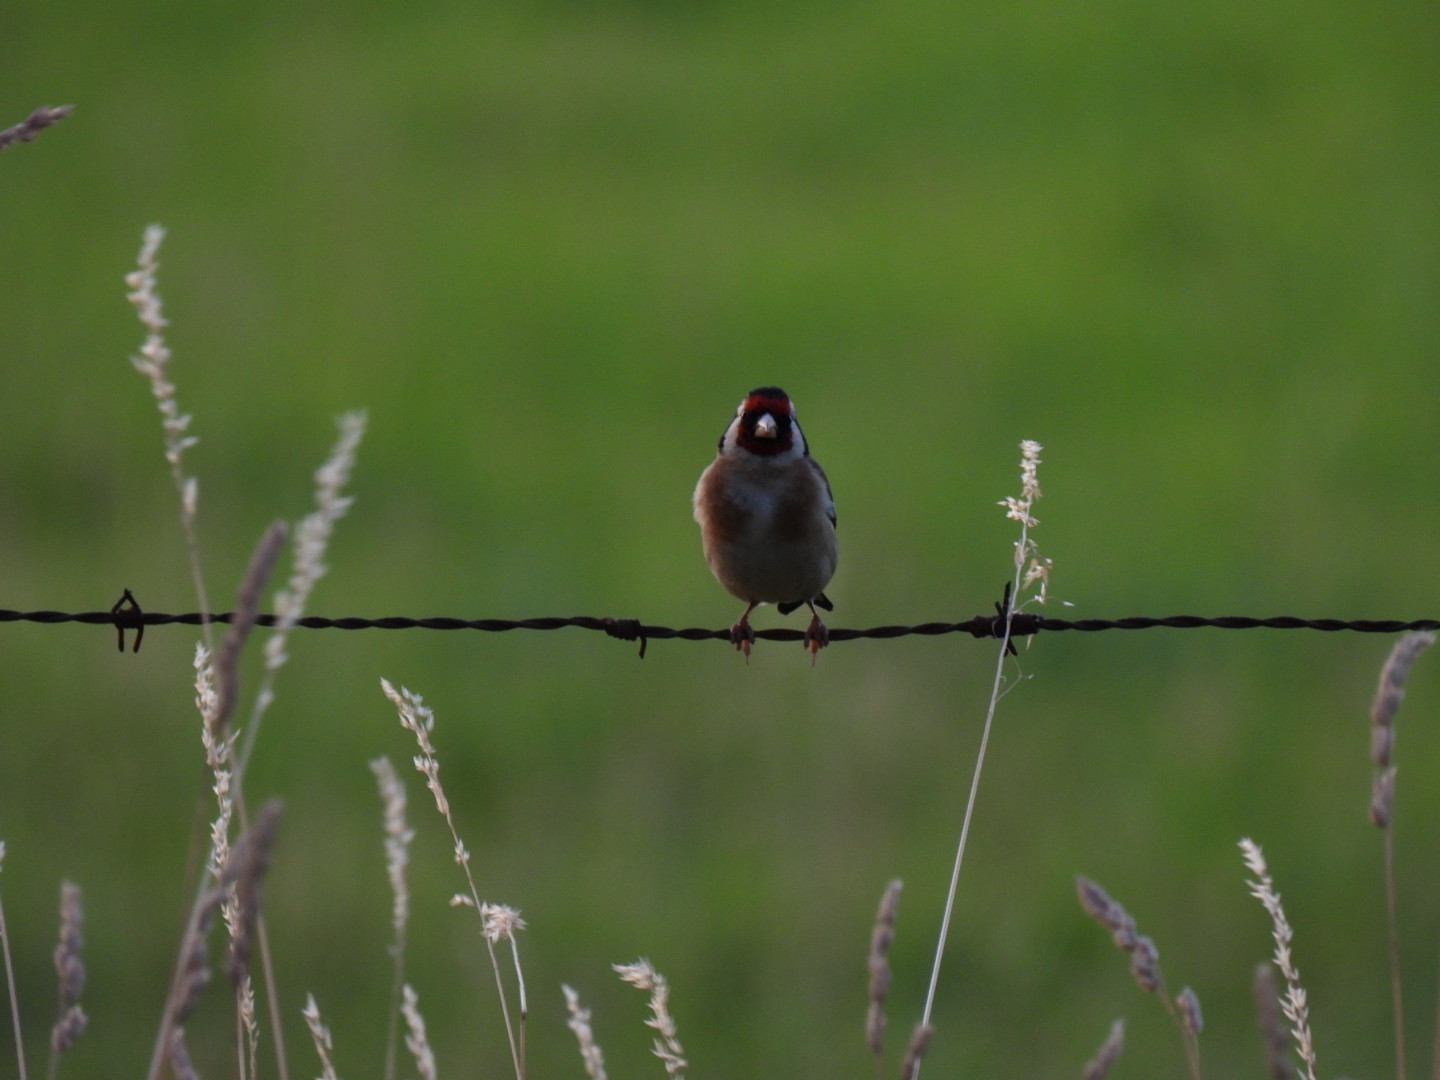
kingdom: Animalia
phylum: Chordata
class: Aves
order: Passeriformes
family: Fringillidae
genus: Carduelis
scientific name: Carduelis carduelis
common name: European goldfinch
